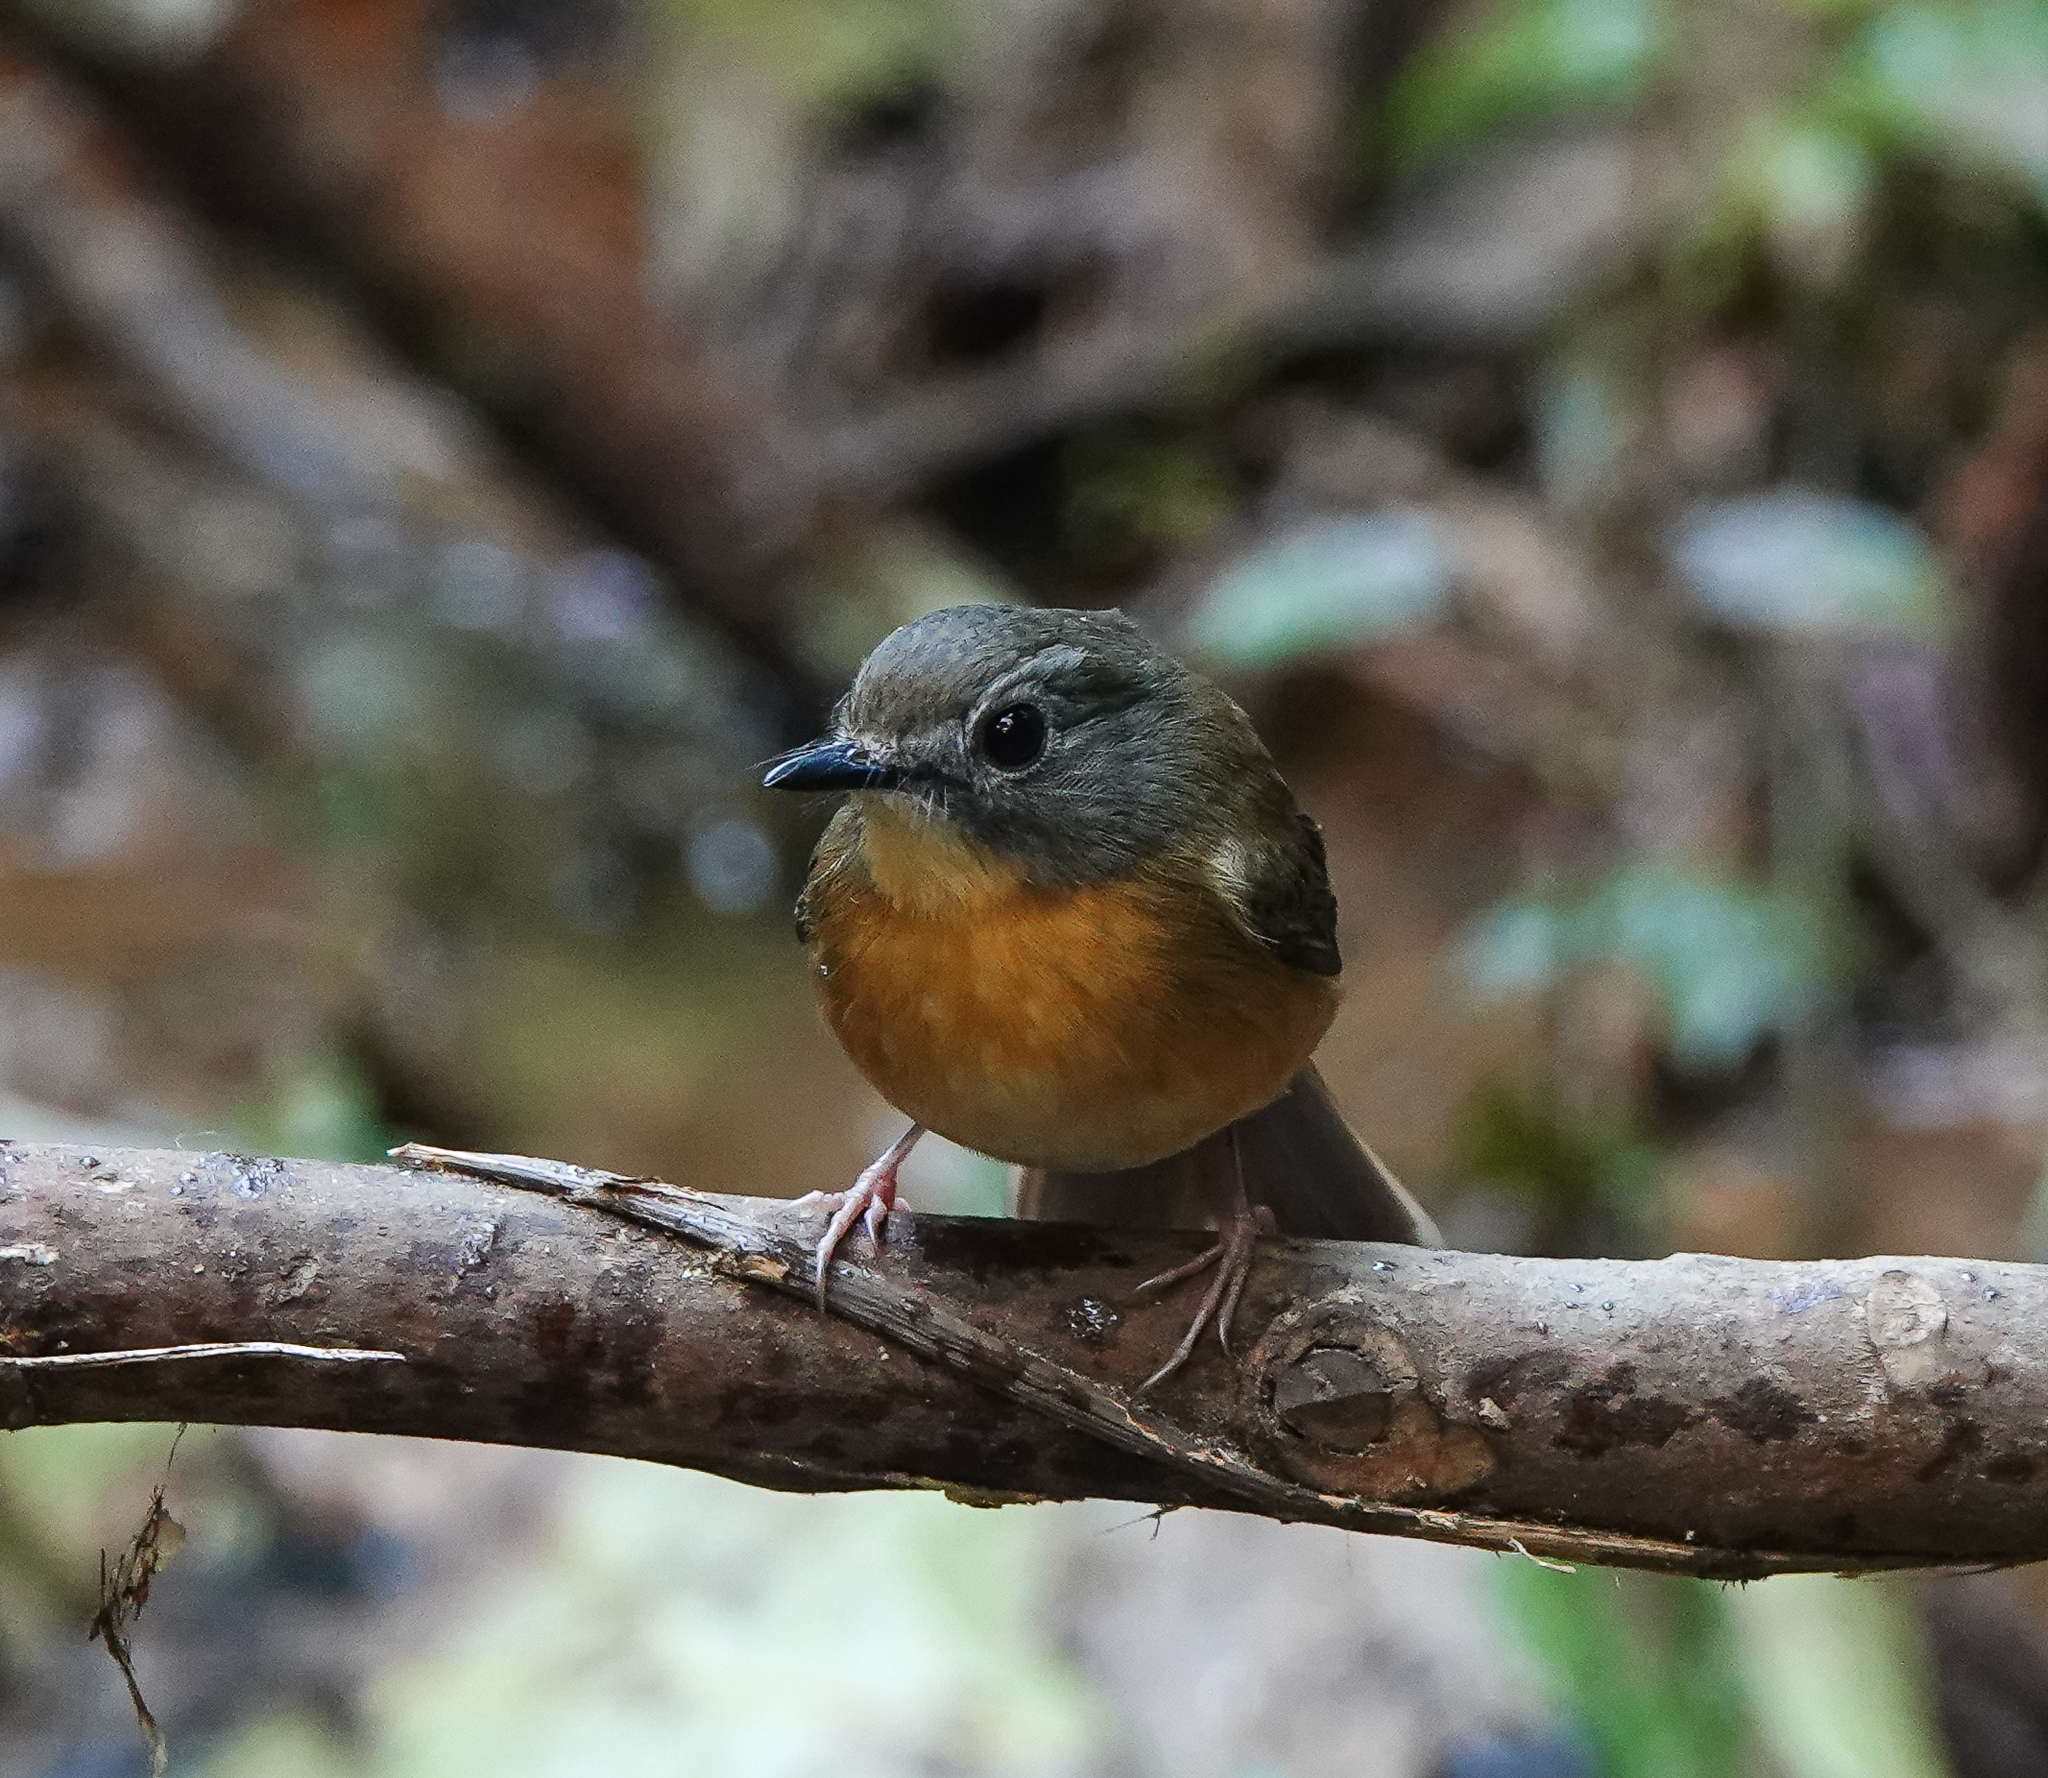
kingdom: Animalia
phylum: Chordata
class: Aves
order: Passeriformes
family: Muscicapidae
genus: Cyornis
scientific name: Cyornis poliogenys
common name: Pale-chinned blue flycatcher
